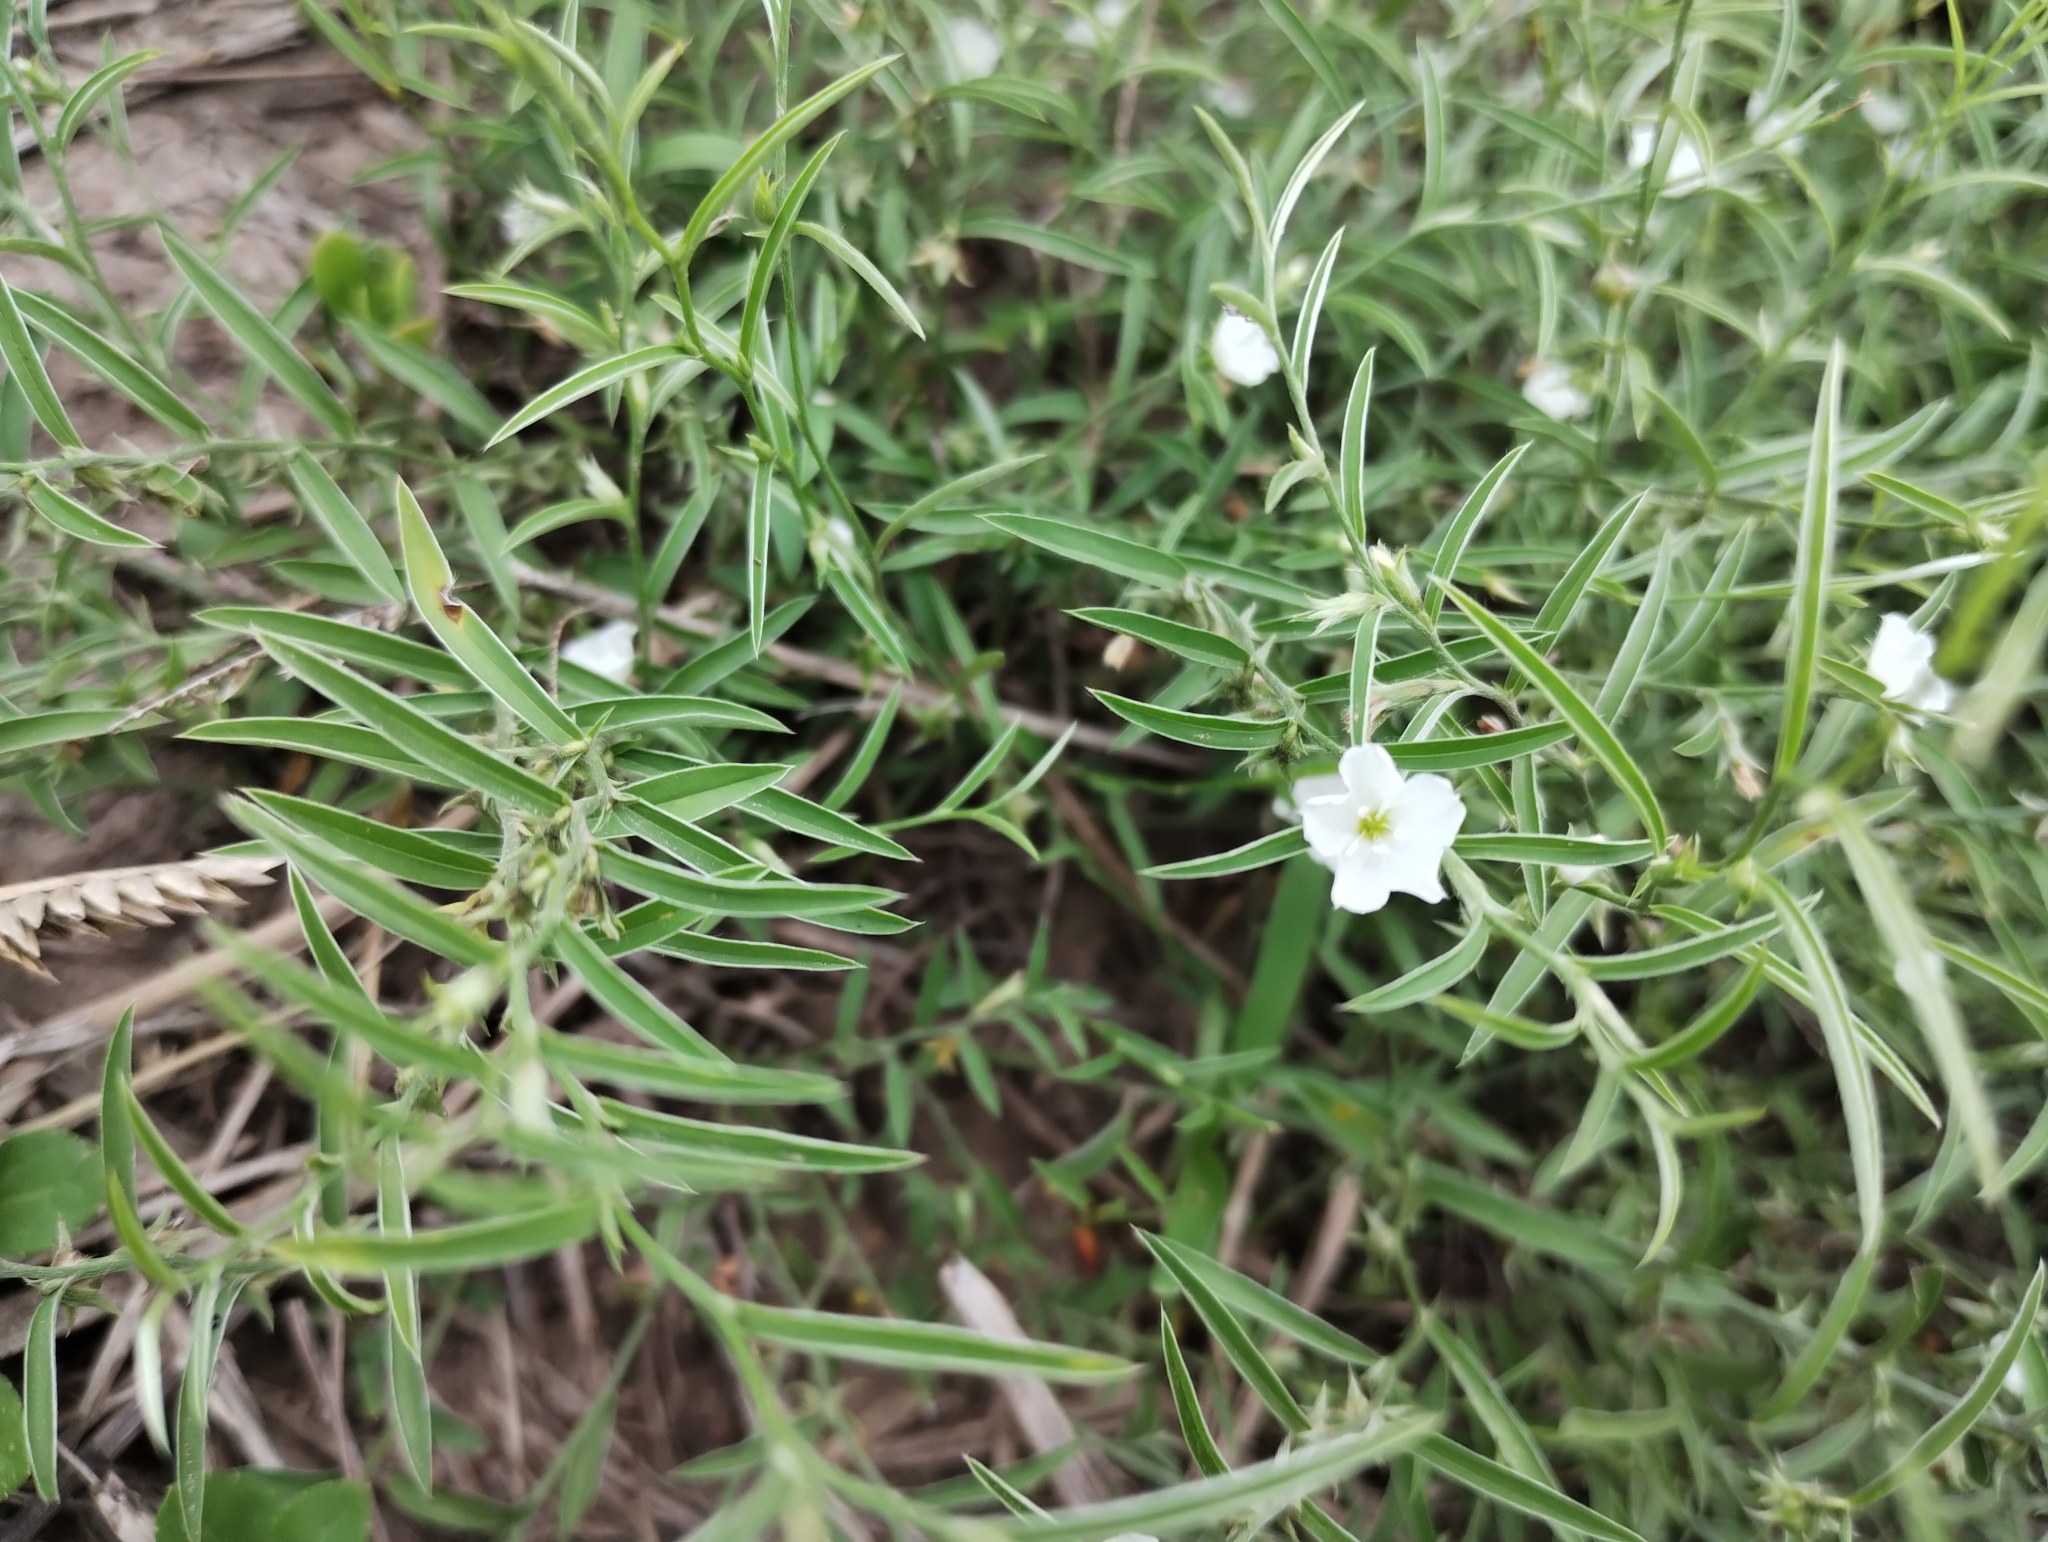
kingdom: Plantae
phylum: Tracheophyta
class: Magnoliopsida
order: Solanales
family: Convolvulaceae
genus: Evolvulus
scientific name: Evolvulus sericeus
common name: Blue dots
